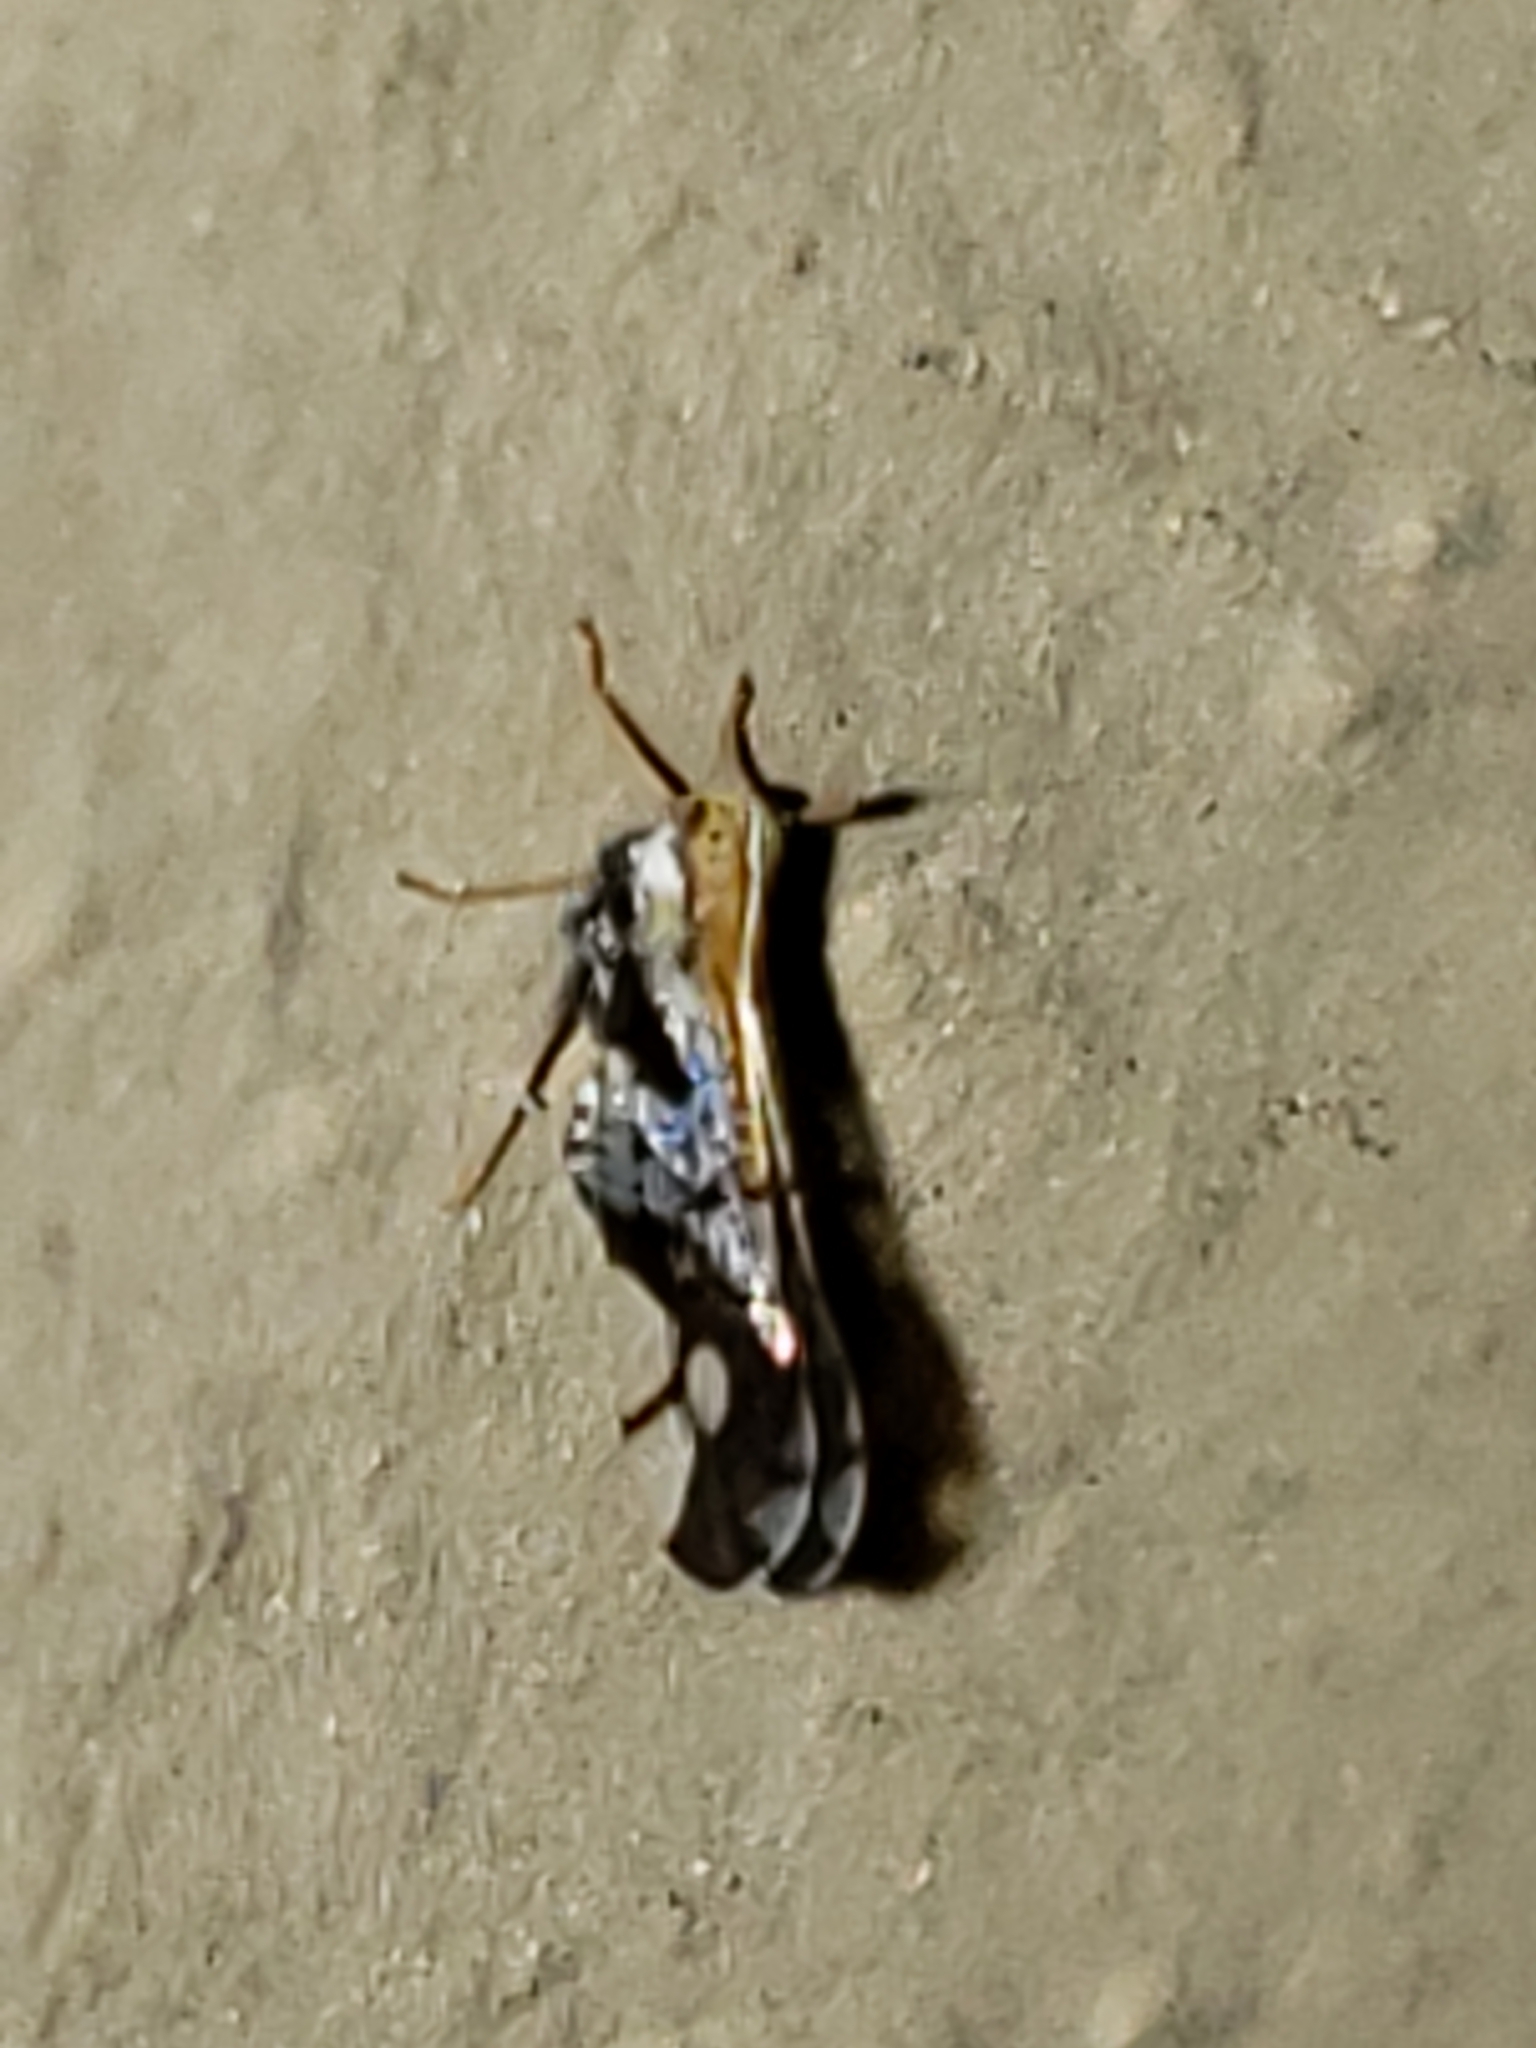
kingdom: Animalia
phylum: Arthropoda
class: Insecta
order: Hemiptera
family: Delphacidae
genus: Liburniella
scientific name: Liburniella ornata
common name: Ornate planthopper
